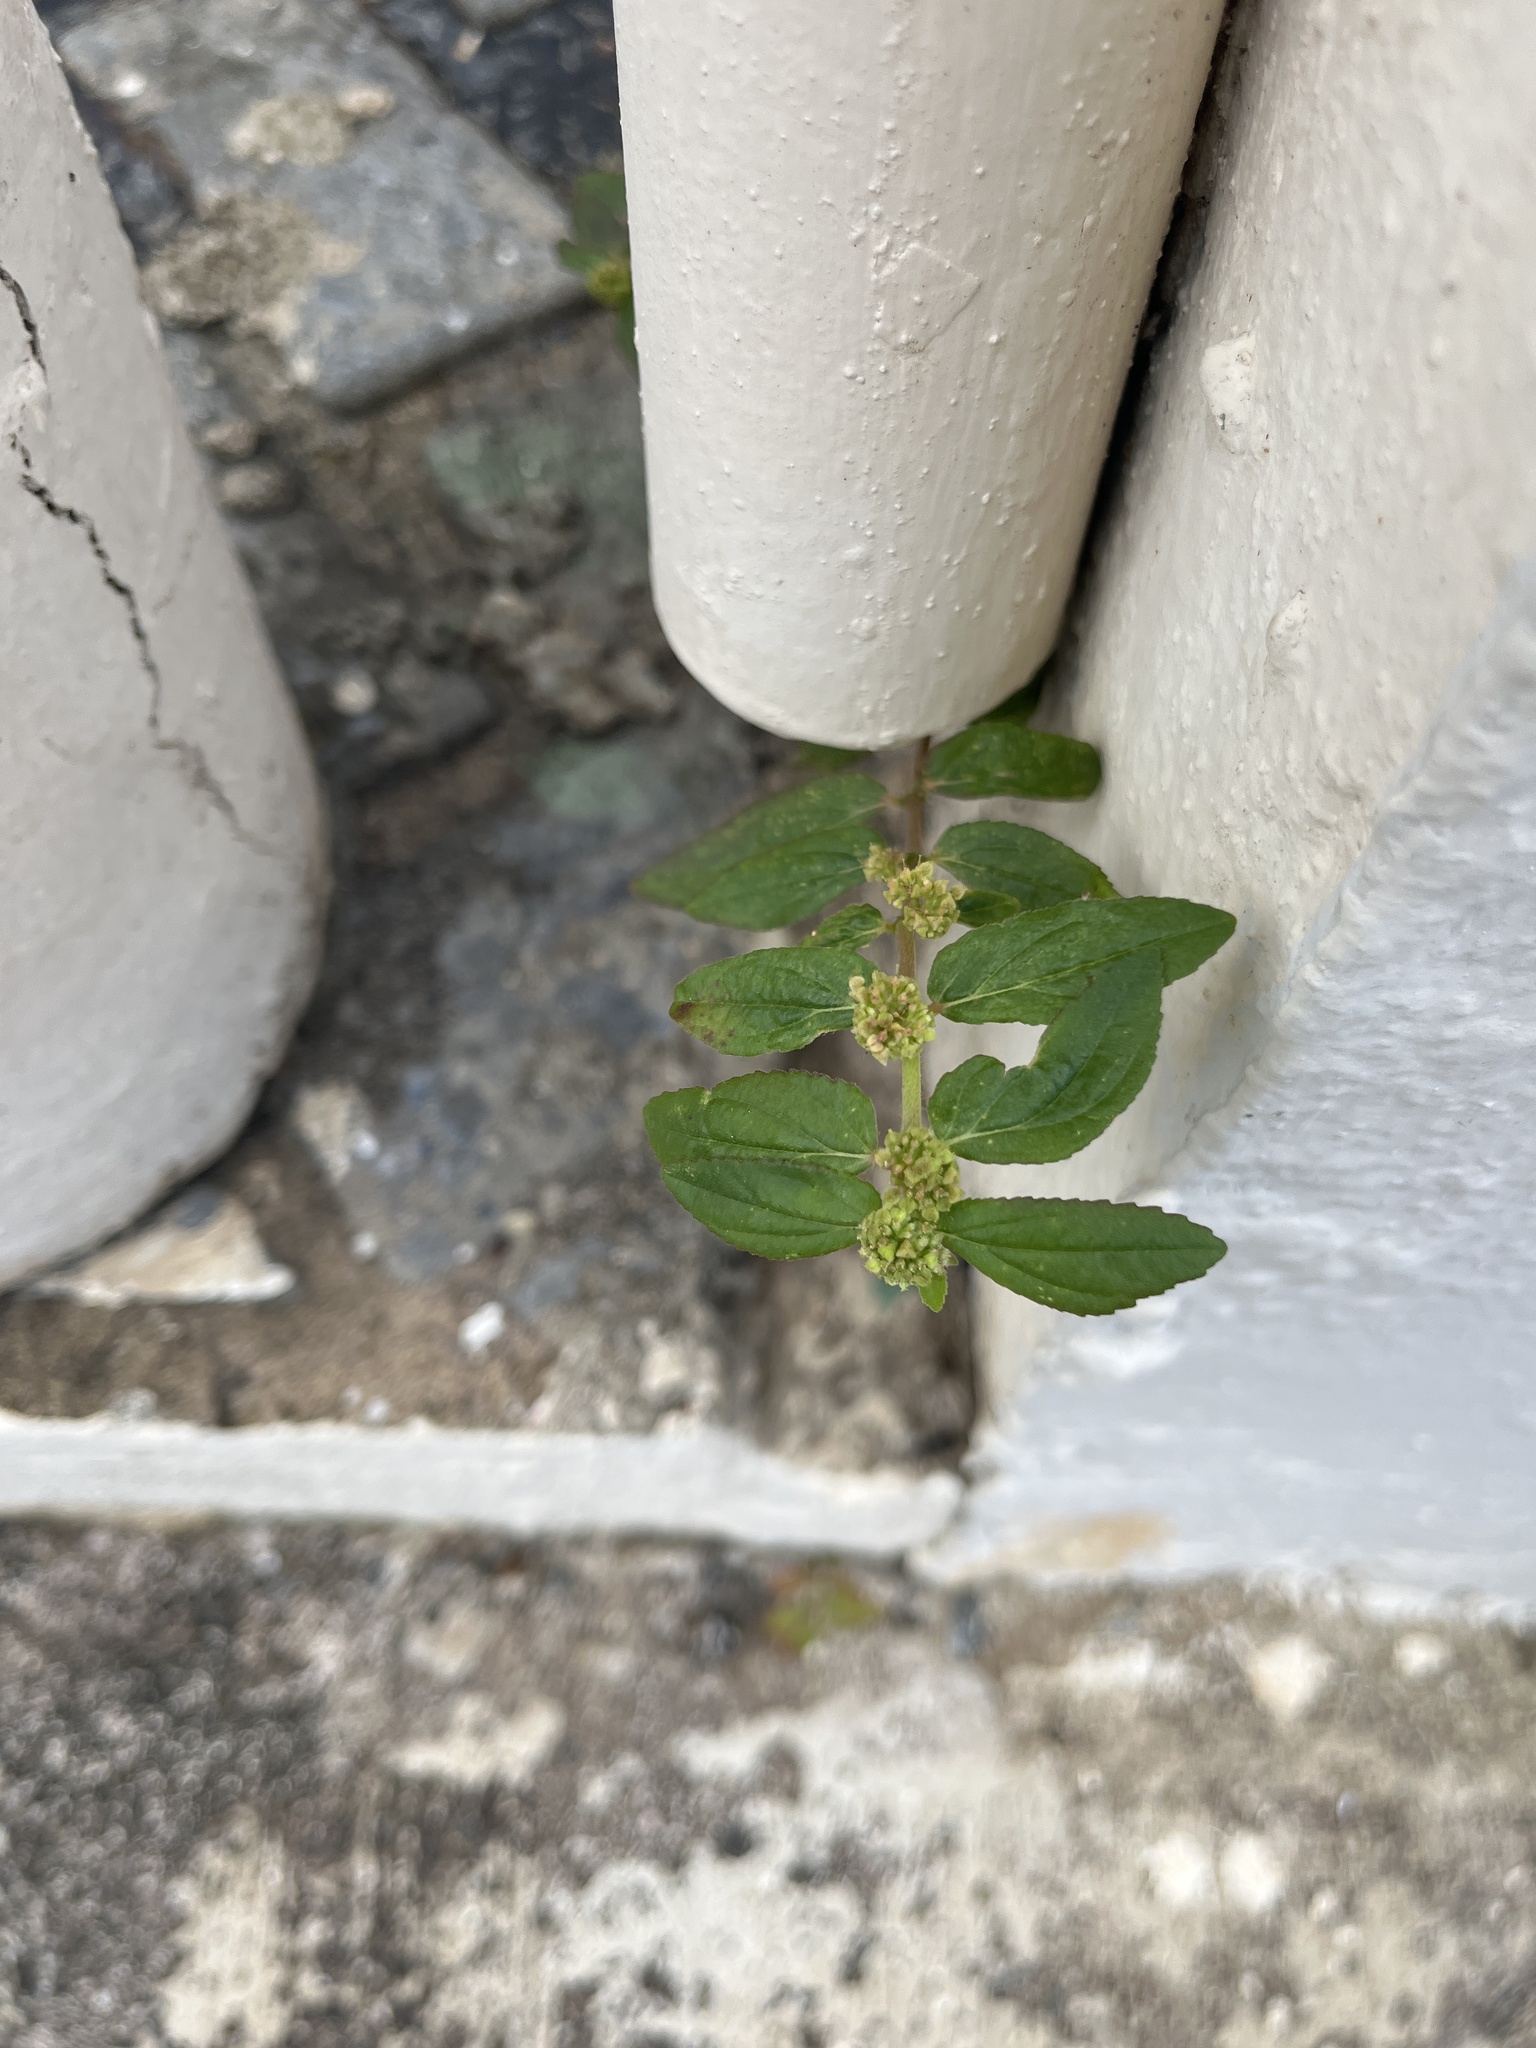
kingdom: Plantae
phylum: Tracheophyta
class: Magnoliopsida
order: Malpighiales
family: Euphorbiaceae
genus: Euphorbia
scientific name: Euphorbia hirta
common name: Pillpod sandmat
